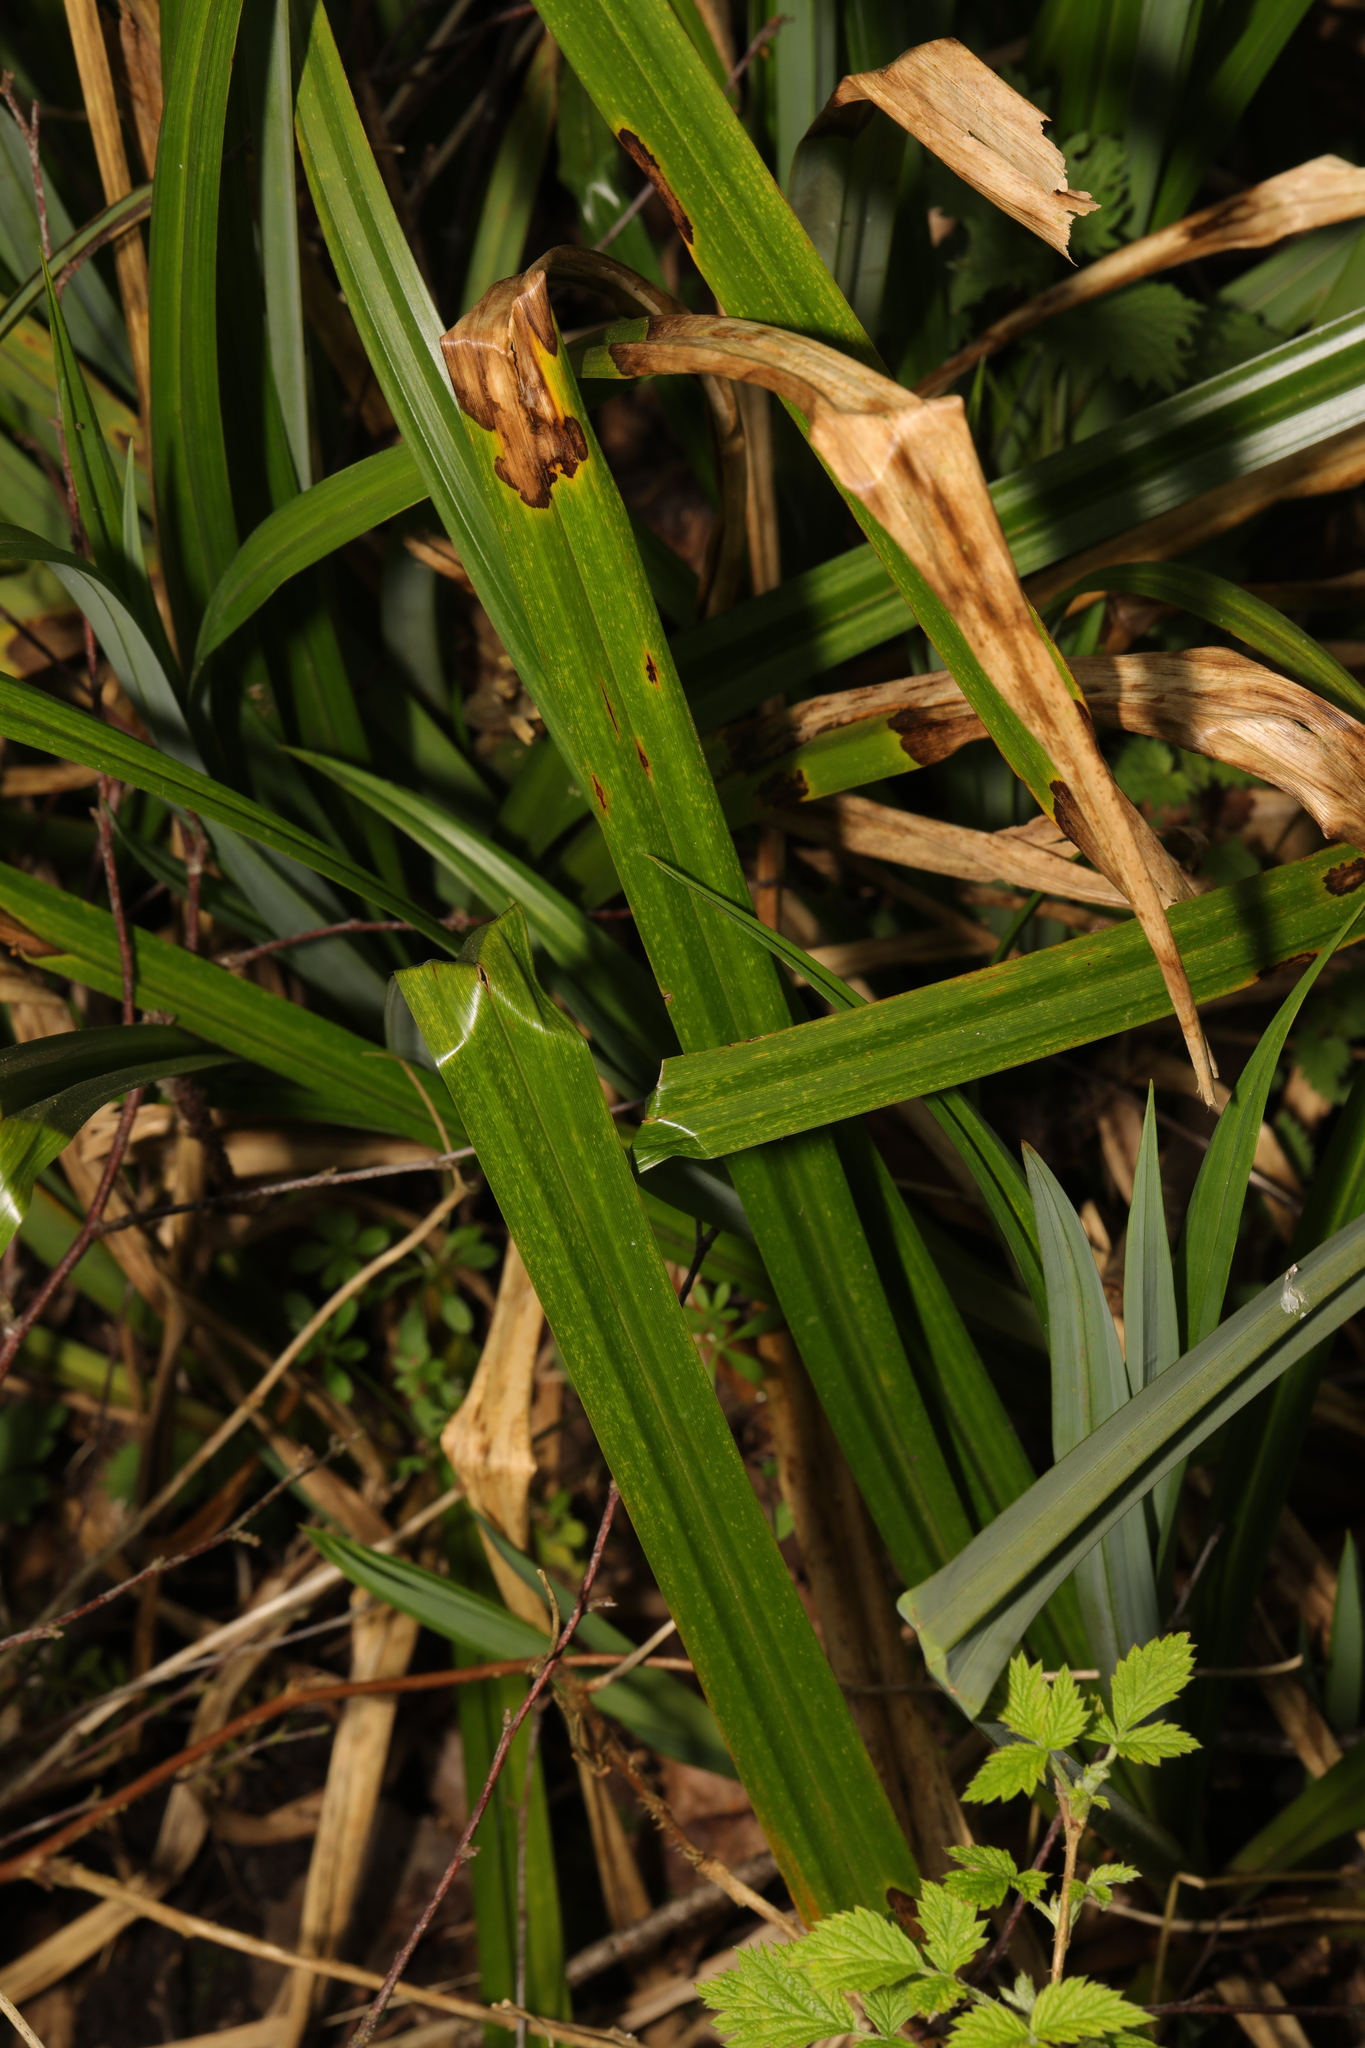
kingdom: Plantae
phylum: Tracheophyta
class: Liliopsida
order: Poales
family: Cyperaceae
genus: Carex
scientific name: Carex pendula
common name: Pendulous sedge
